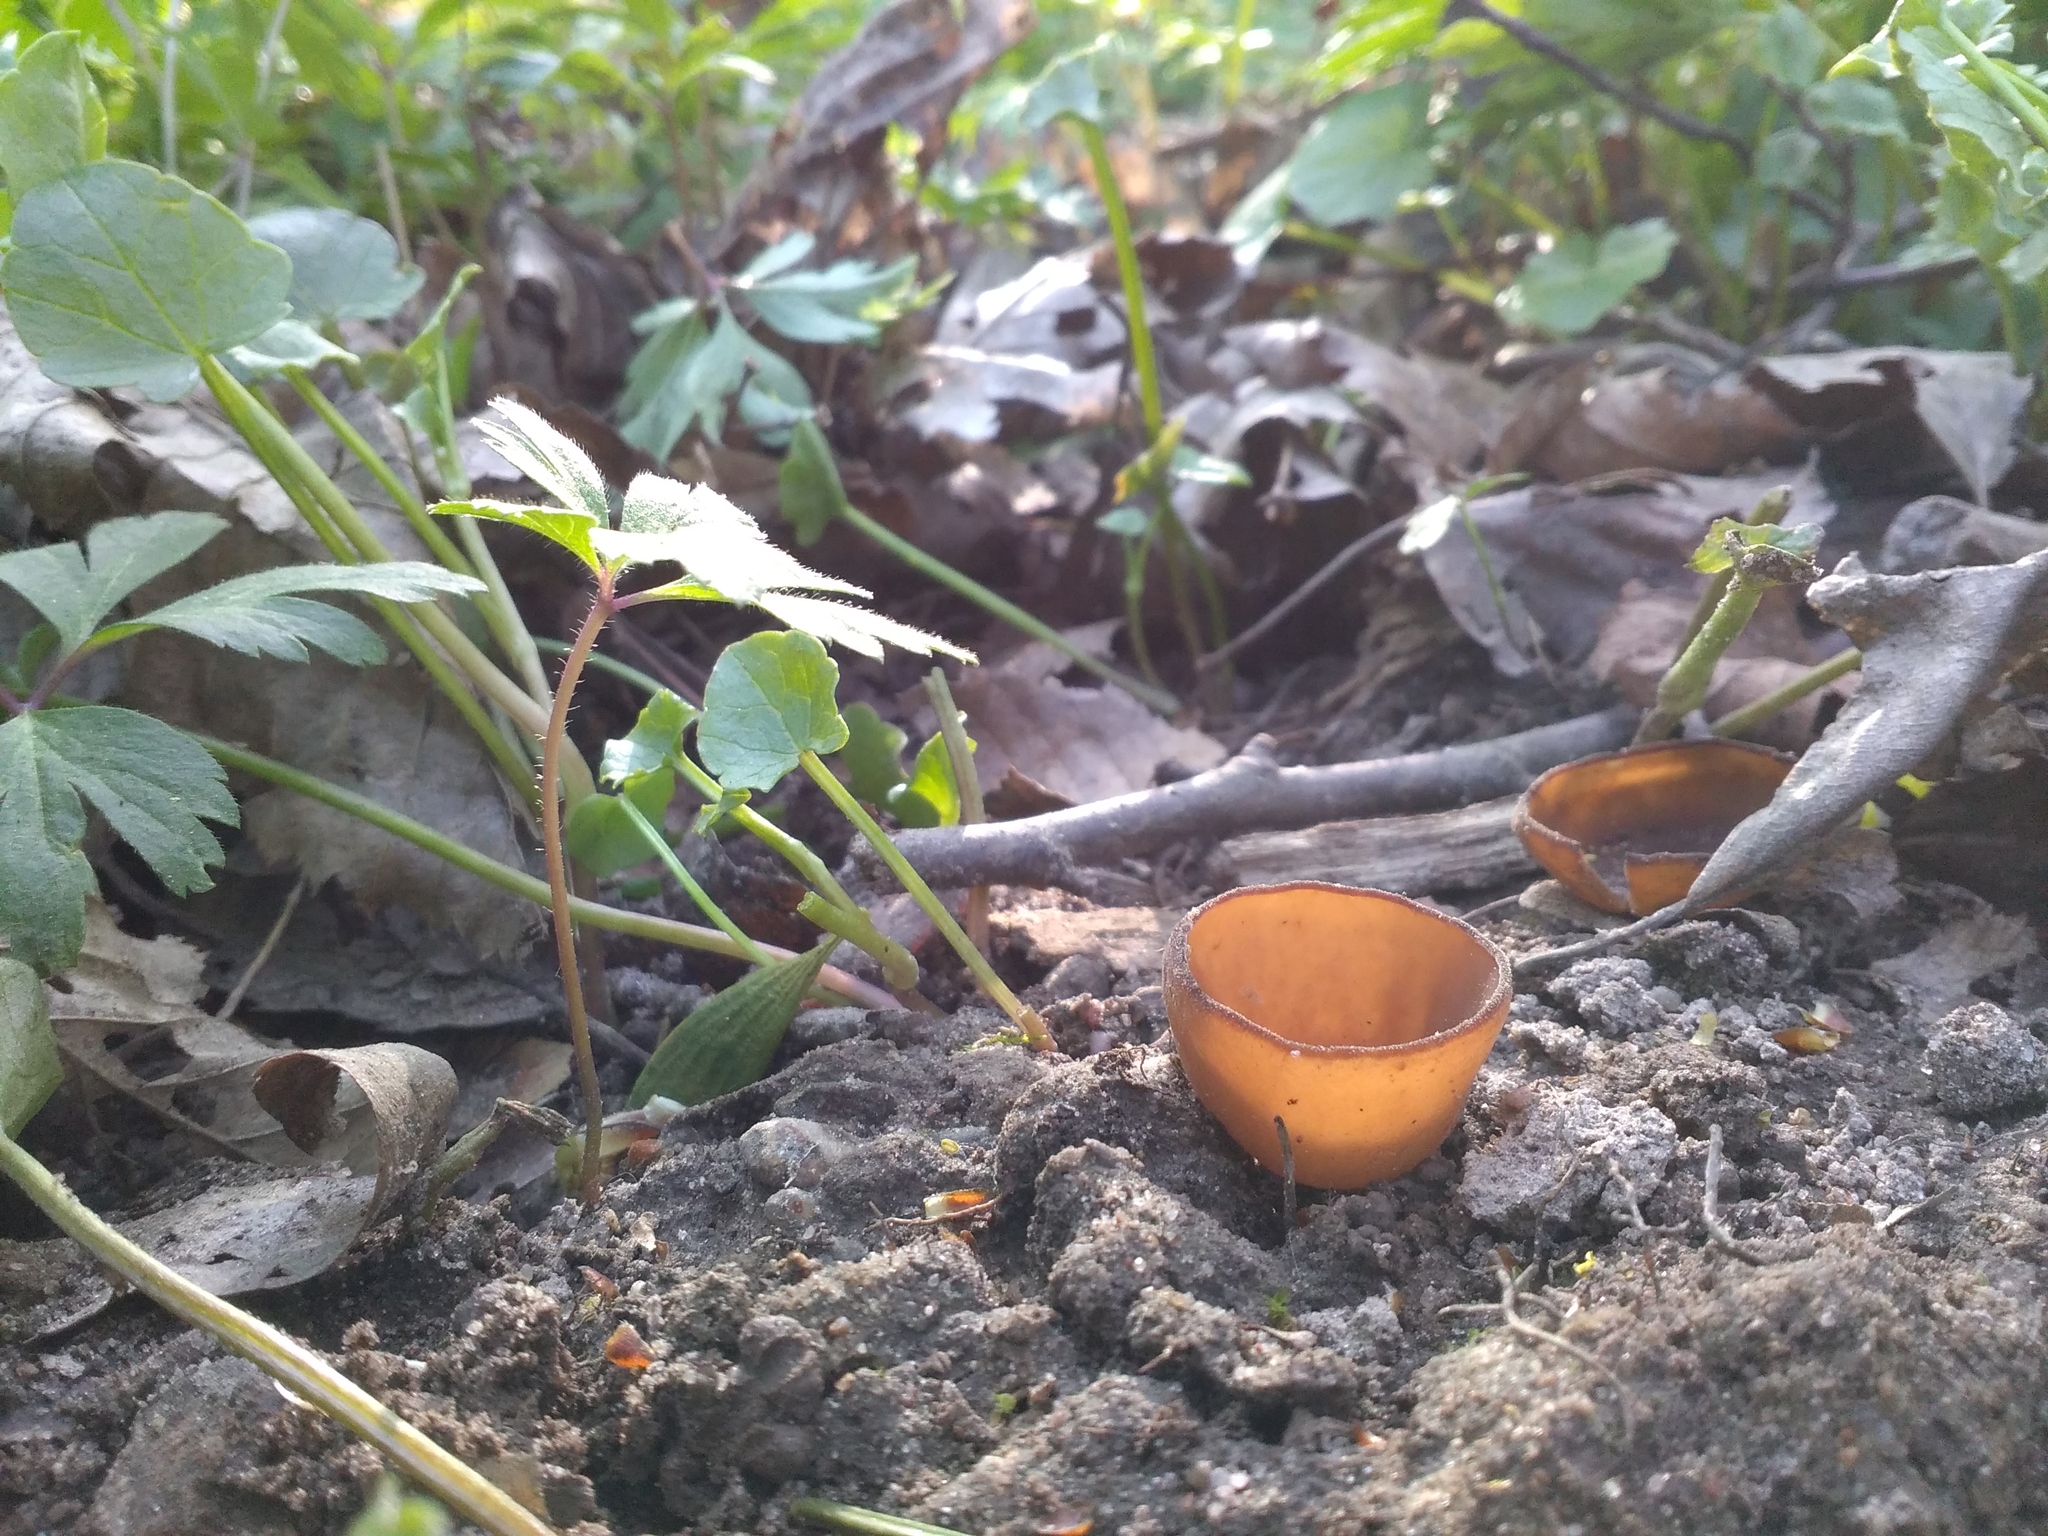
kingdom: Fungi
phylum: Ascomycota
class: Leotiomycetes
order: Helotiales
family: Sclerotiniaceae
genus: Dumontinia
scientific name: Dumontinia tuberosa
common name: Anemone cup
